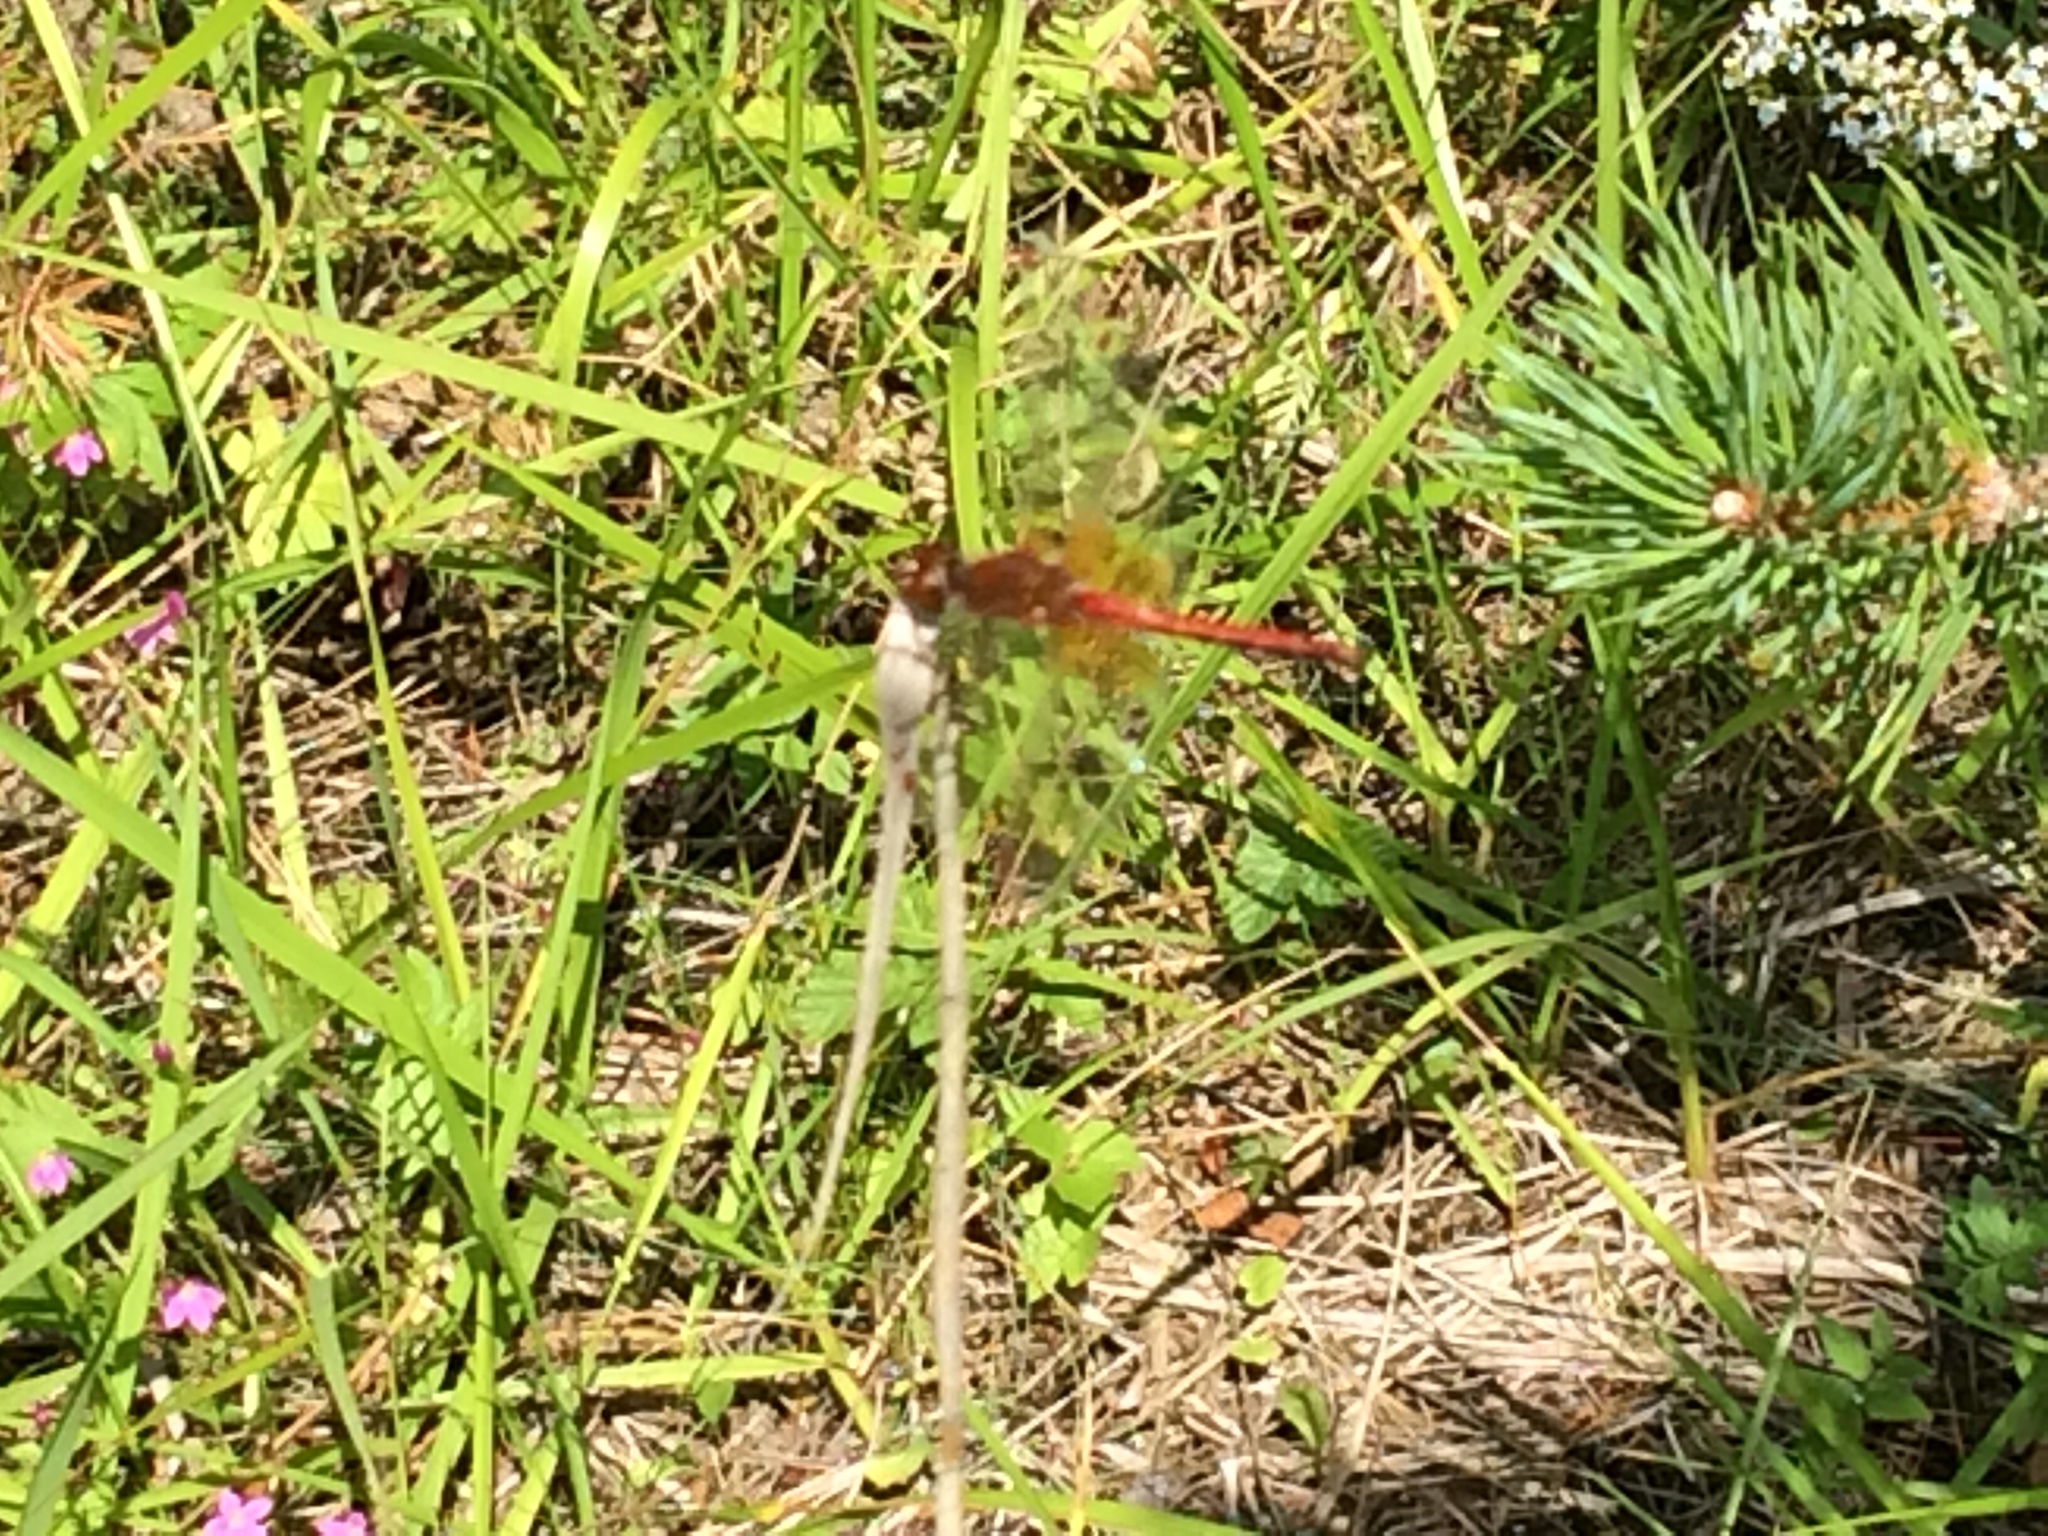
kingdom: Animalia
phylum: Arthropoda
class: Insecta
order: Odonata
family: Libellulidae
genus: Sympetrum
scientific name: Sympetrum flaveolum
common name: Yellow-winged darter
